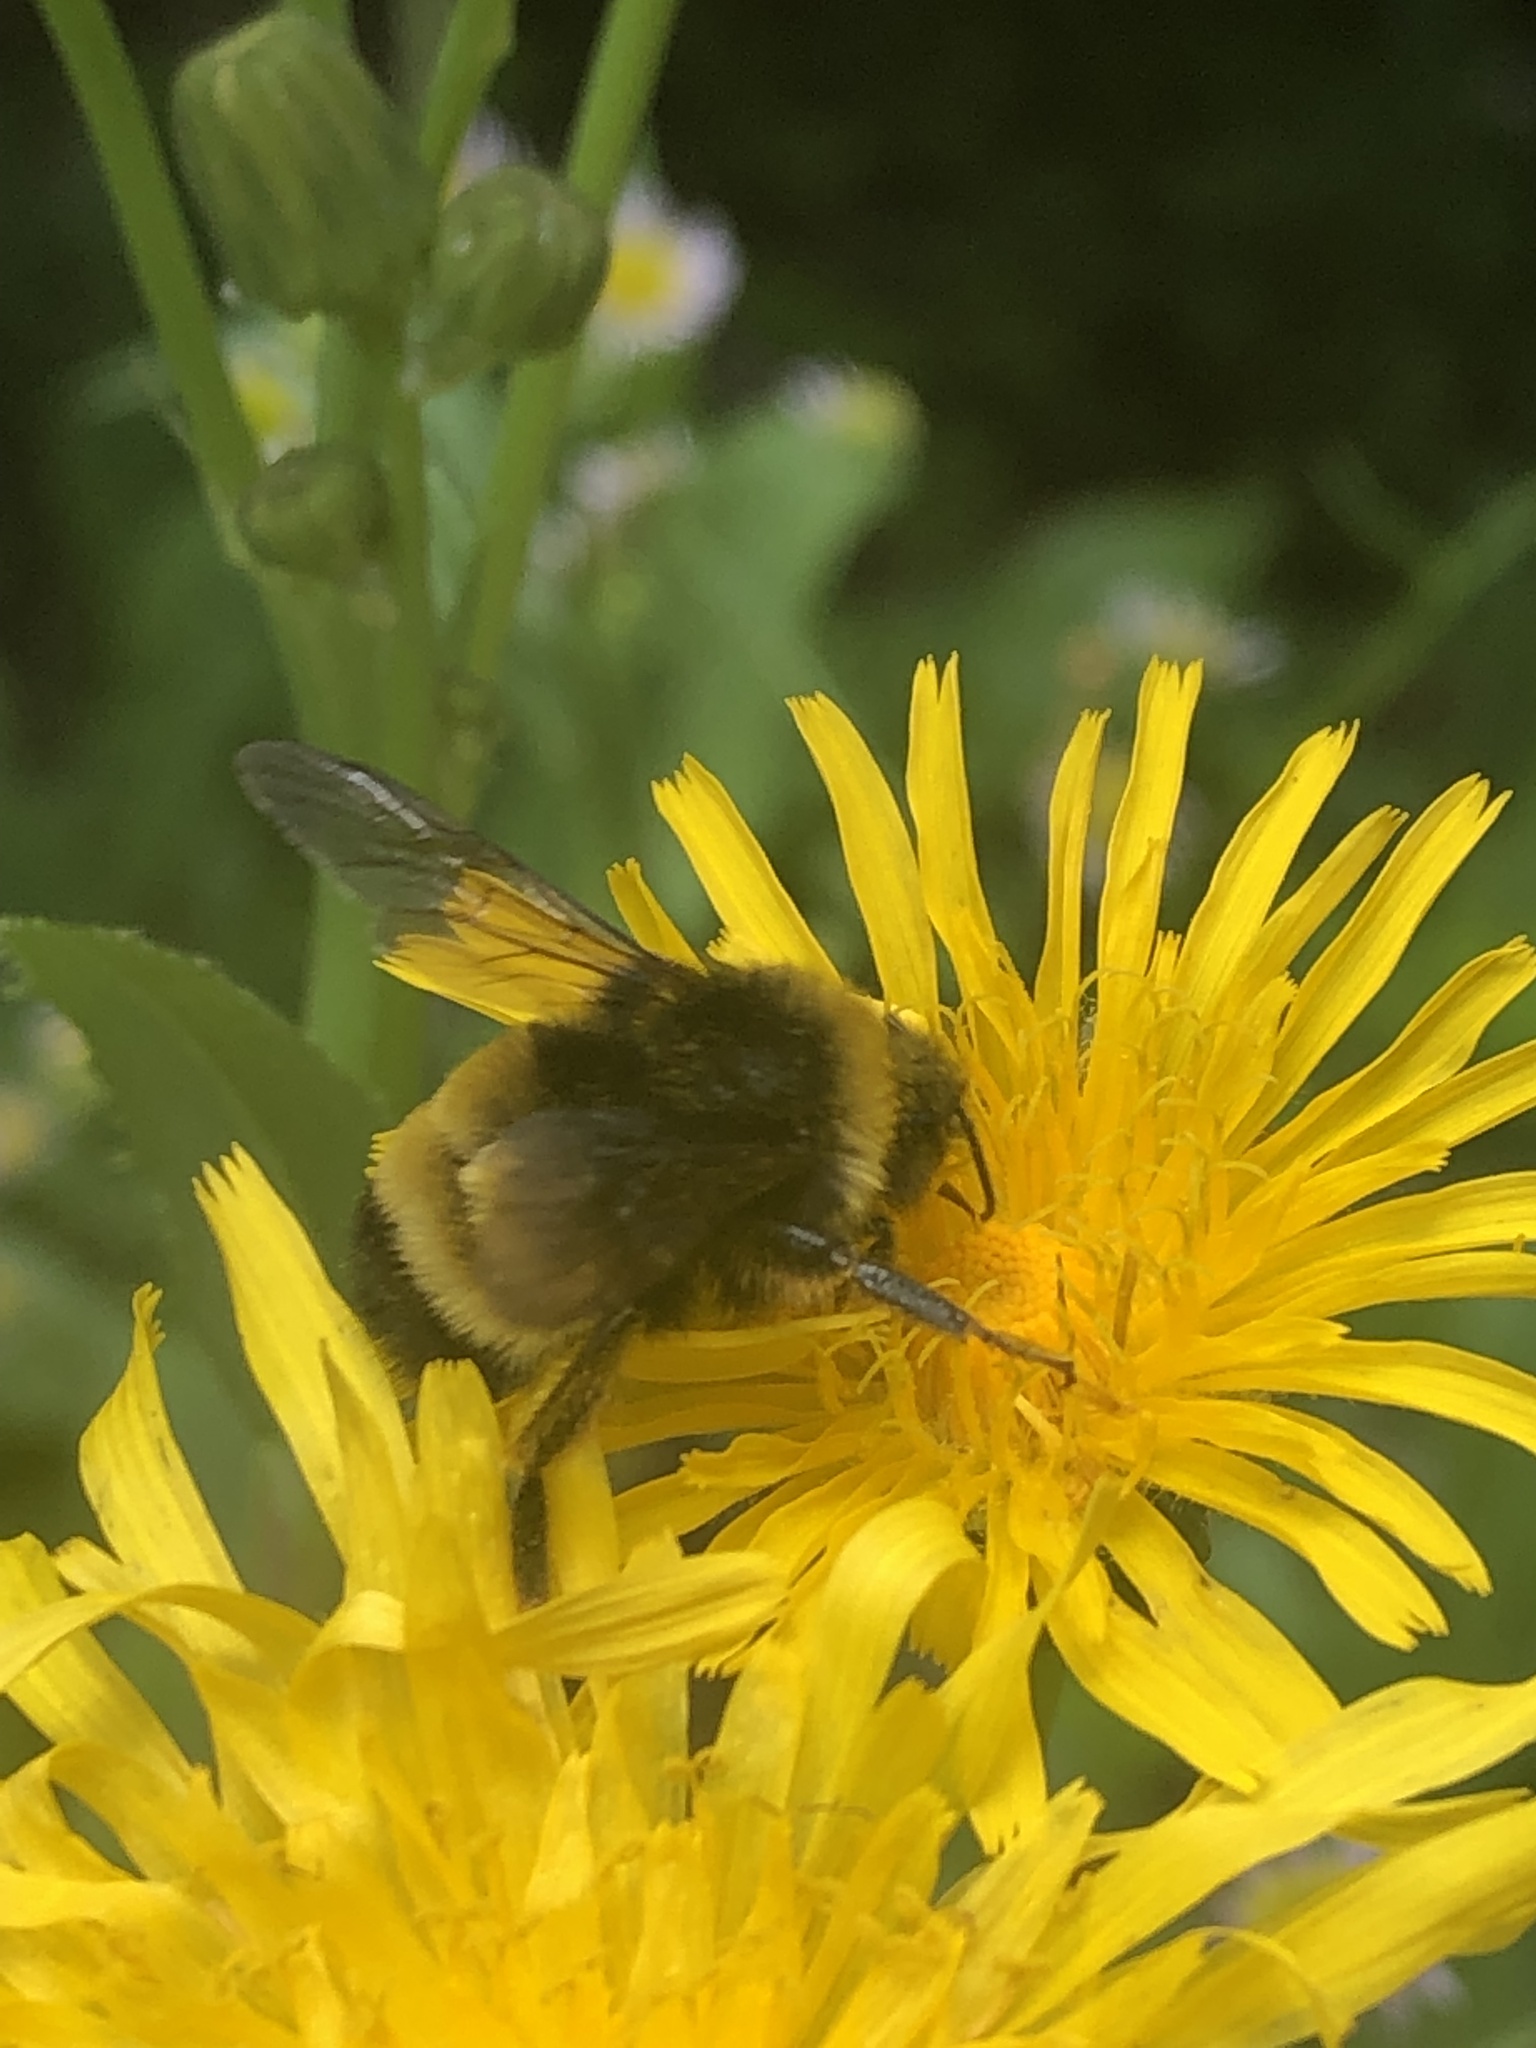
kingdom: Animalia
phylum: Arthropoda
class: Insecta
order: Hymenoptera
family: Apidae
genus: Bombus
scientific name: Bombus terricola
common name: Yellow-banded bumble bee
